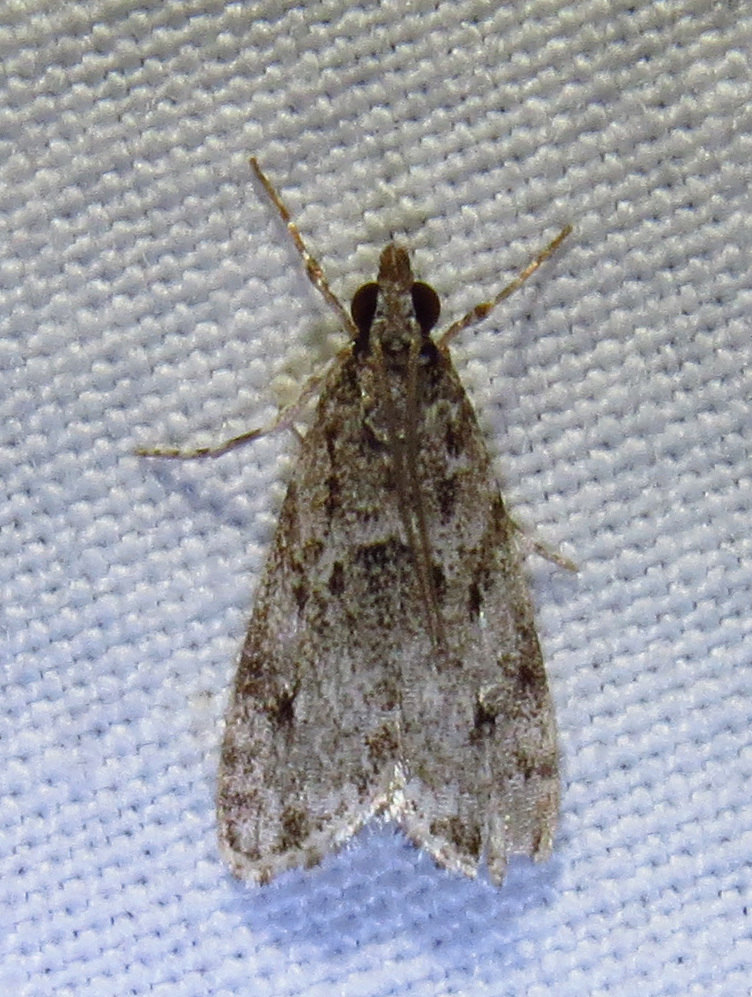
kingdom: Animalia
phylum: Arthropoda
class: Insecta
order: Lepidoptera
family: Crambidae
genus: Eudonia
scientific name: Eudonia heterosalis
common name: Mcdunnough's eudonia
